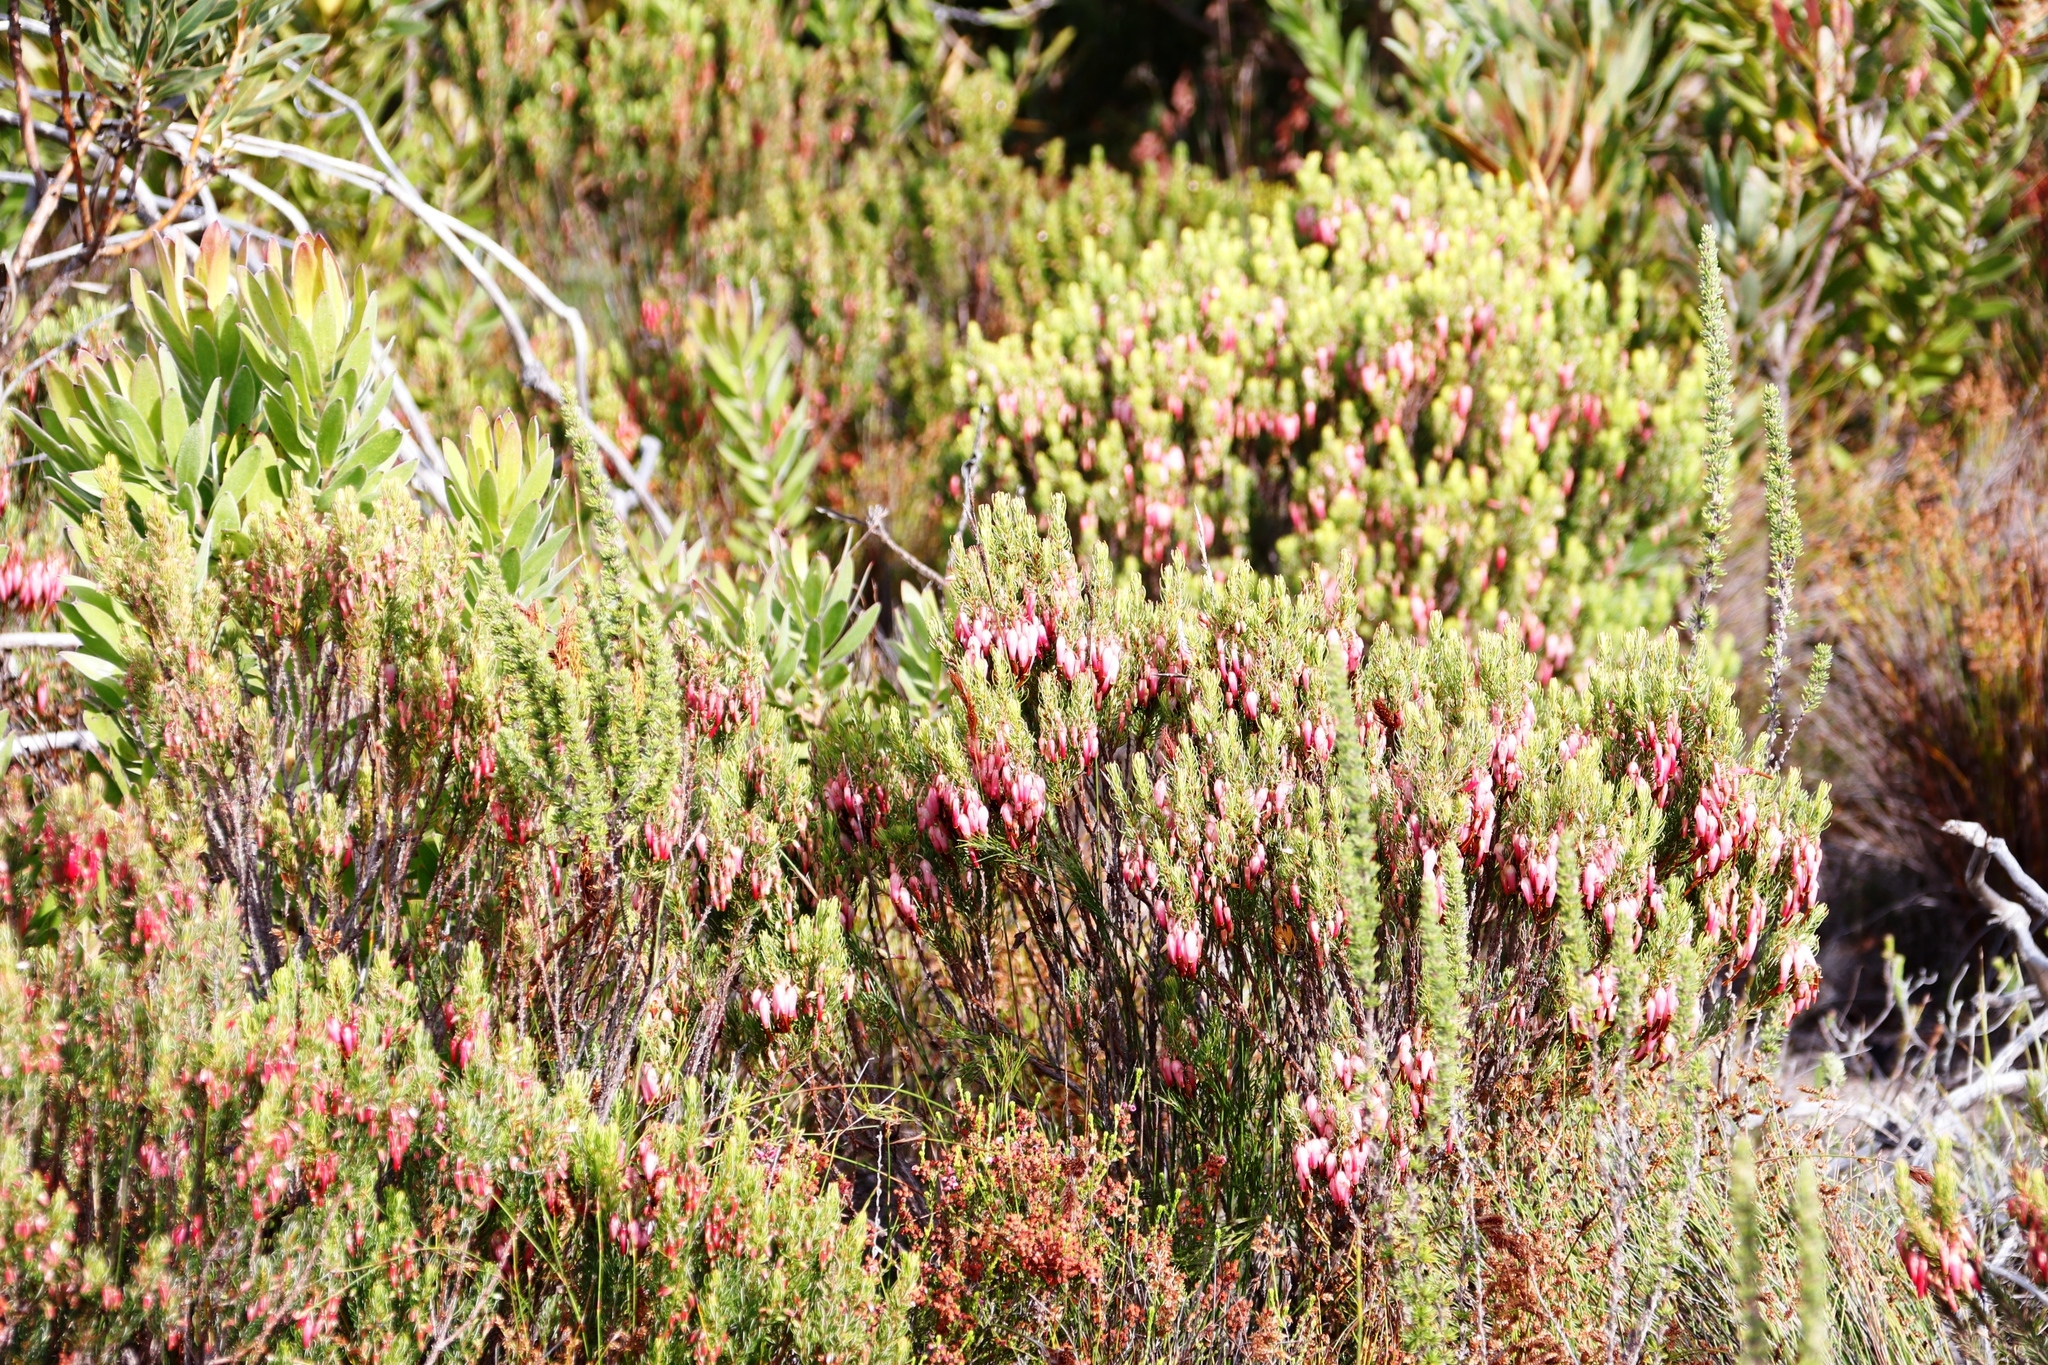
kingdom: Plantae
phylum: Tracheophyta
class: Magnoliopsida
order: Ericales
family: Ericaceae
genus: Erica
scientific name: Erica plukenetii
